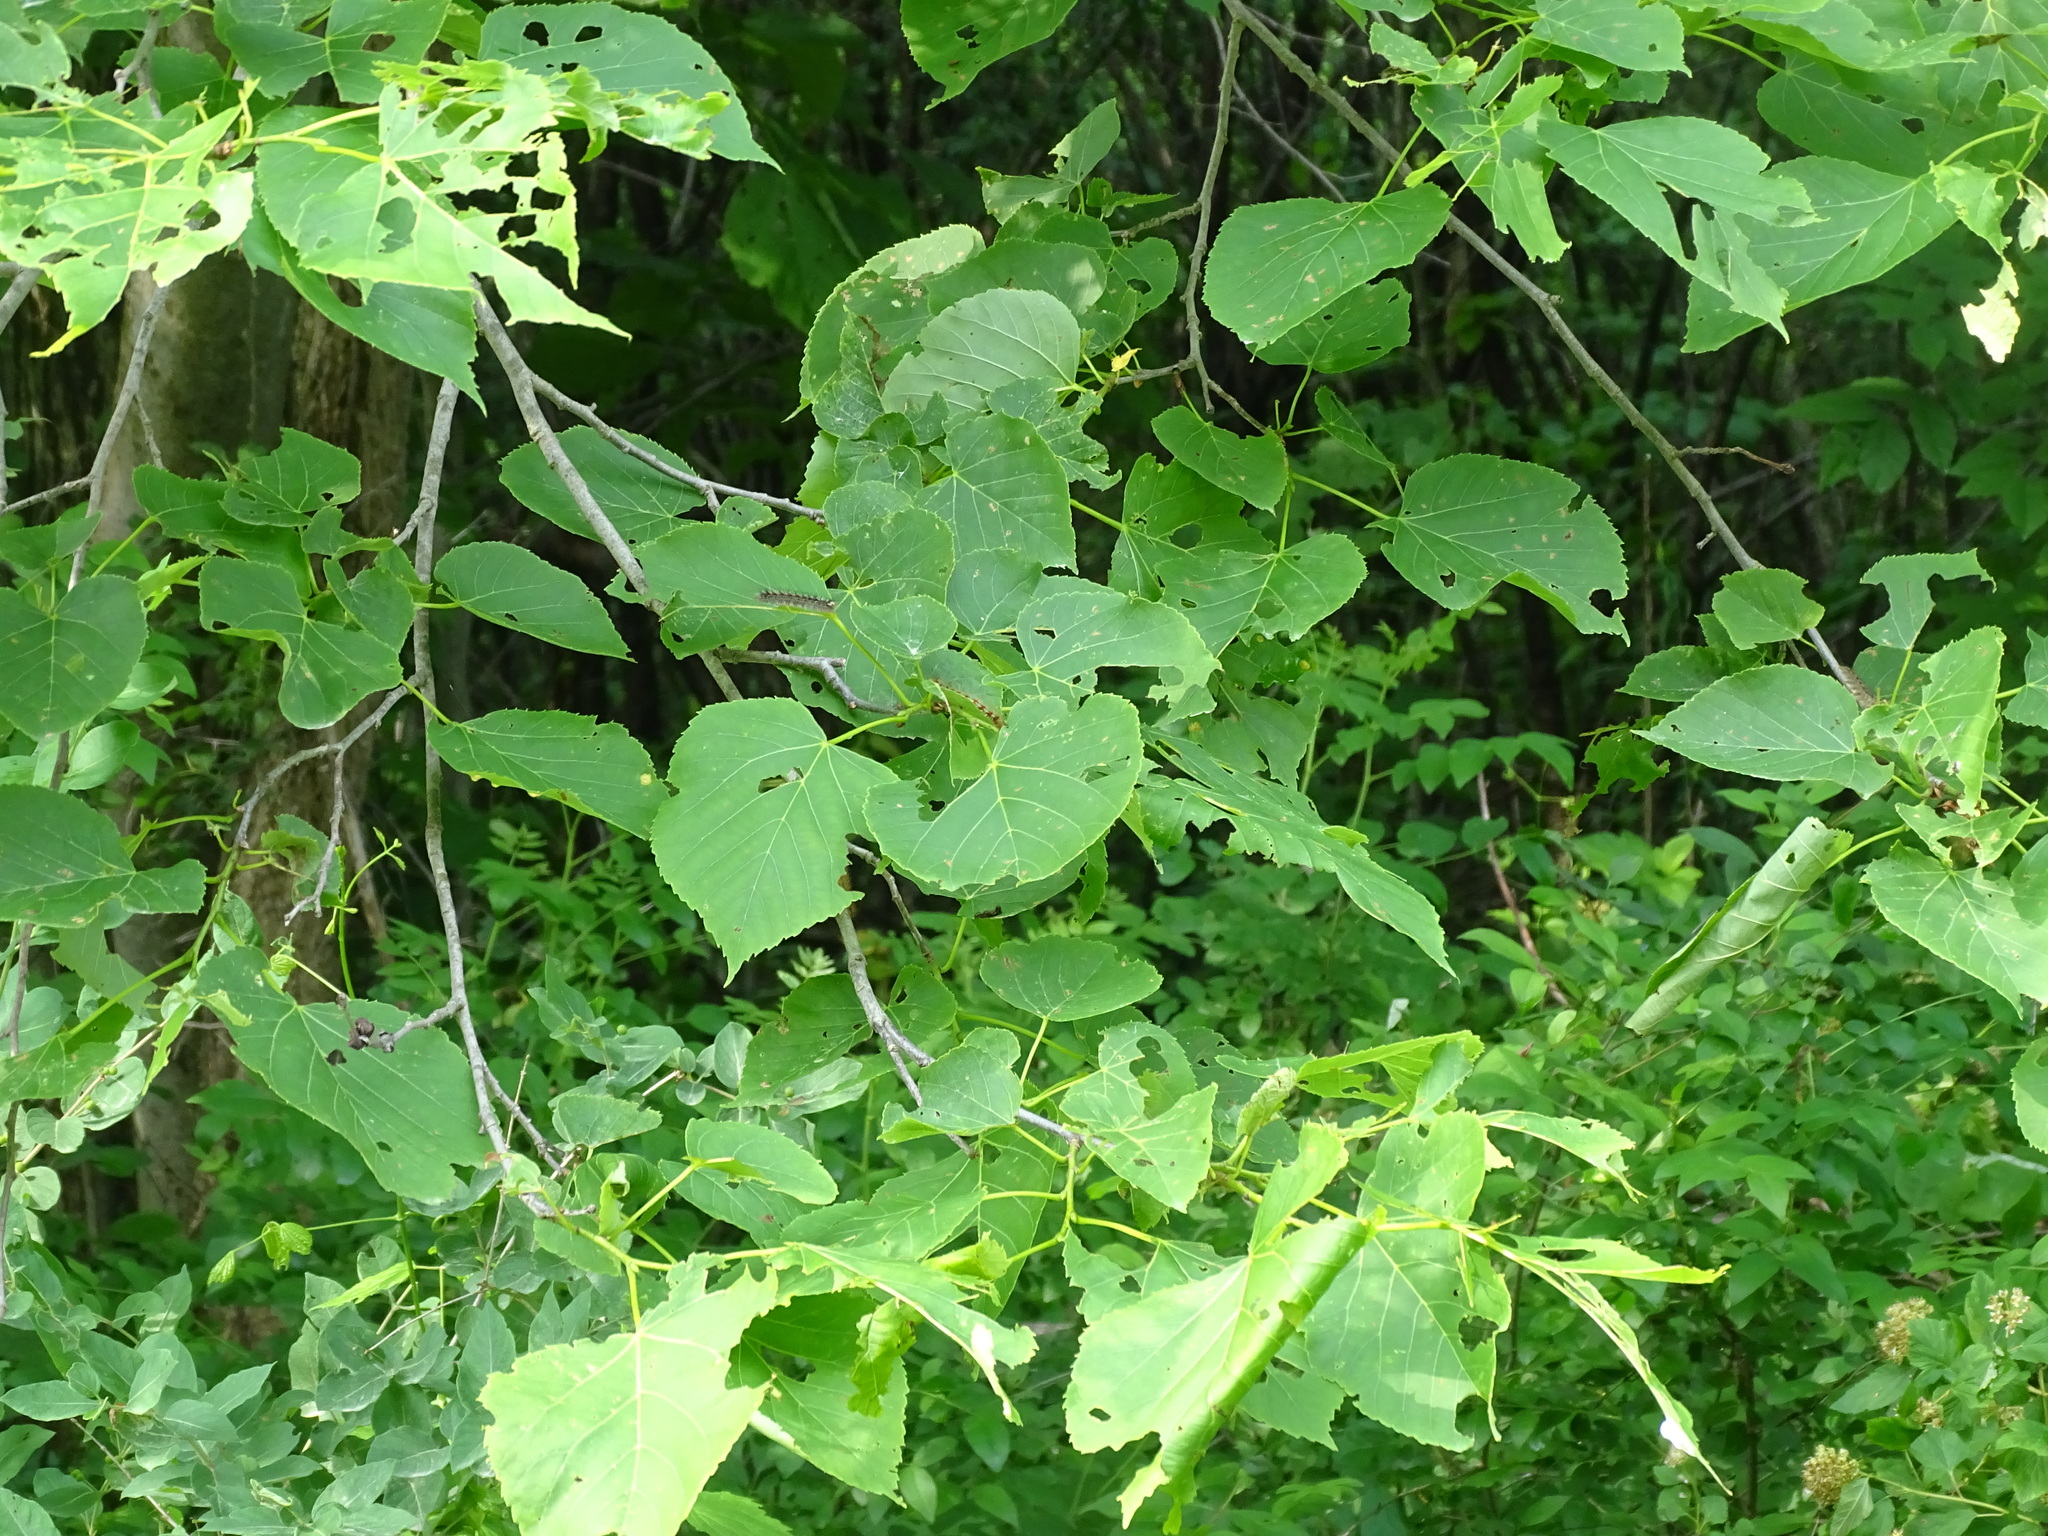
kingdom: Plantae
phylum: Tracheophyta
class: Magnoliopsida
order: Malvales
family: Malvaceae
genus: Tilia
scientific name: Tilia americana
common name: Basswood
